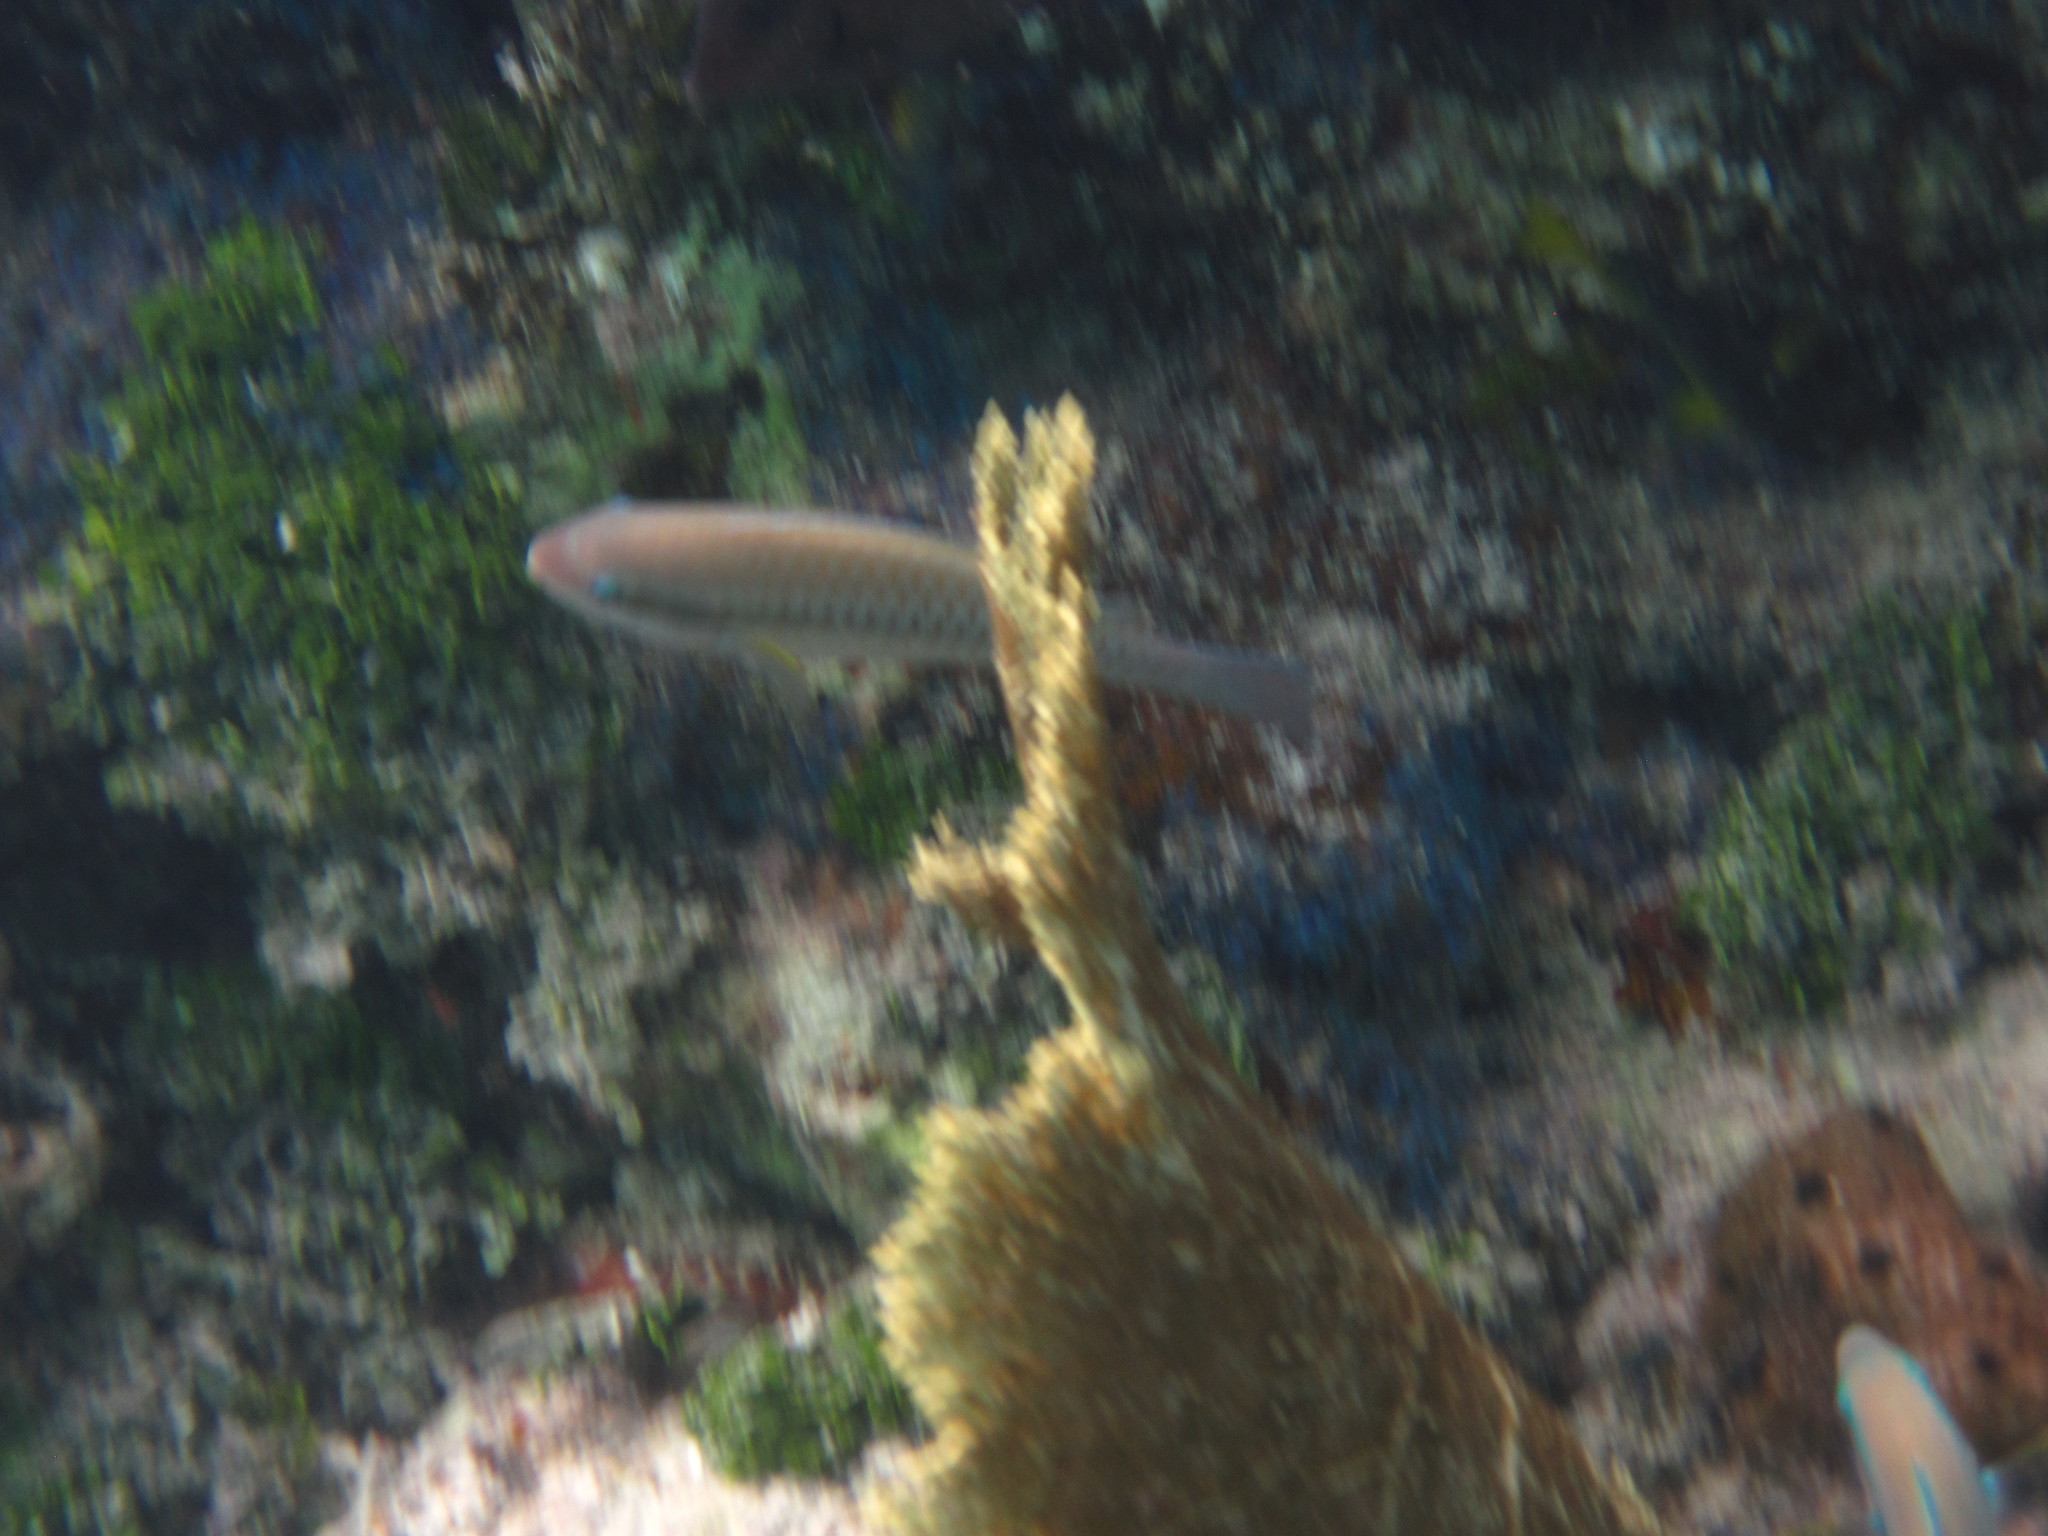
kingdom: Animalia
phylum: Chordata
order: Perciformes
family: Scaridae
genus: Scarus
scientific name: Scarus iseri
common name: Striped parrotfish
